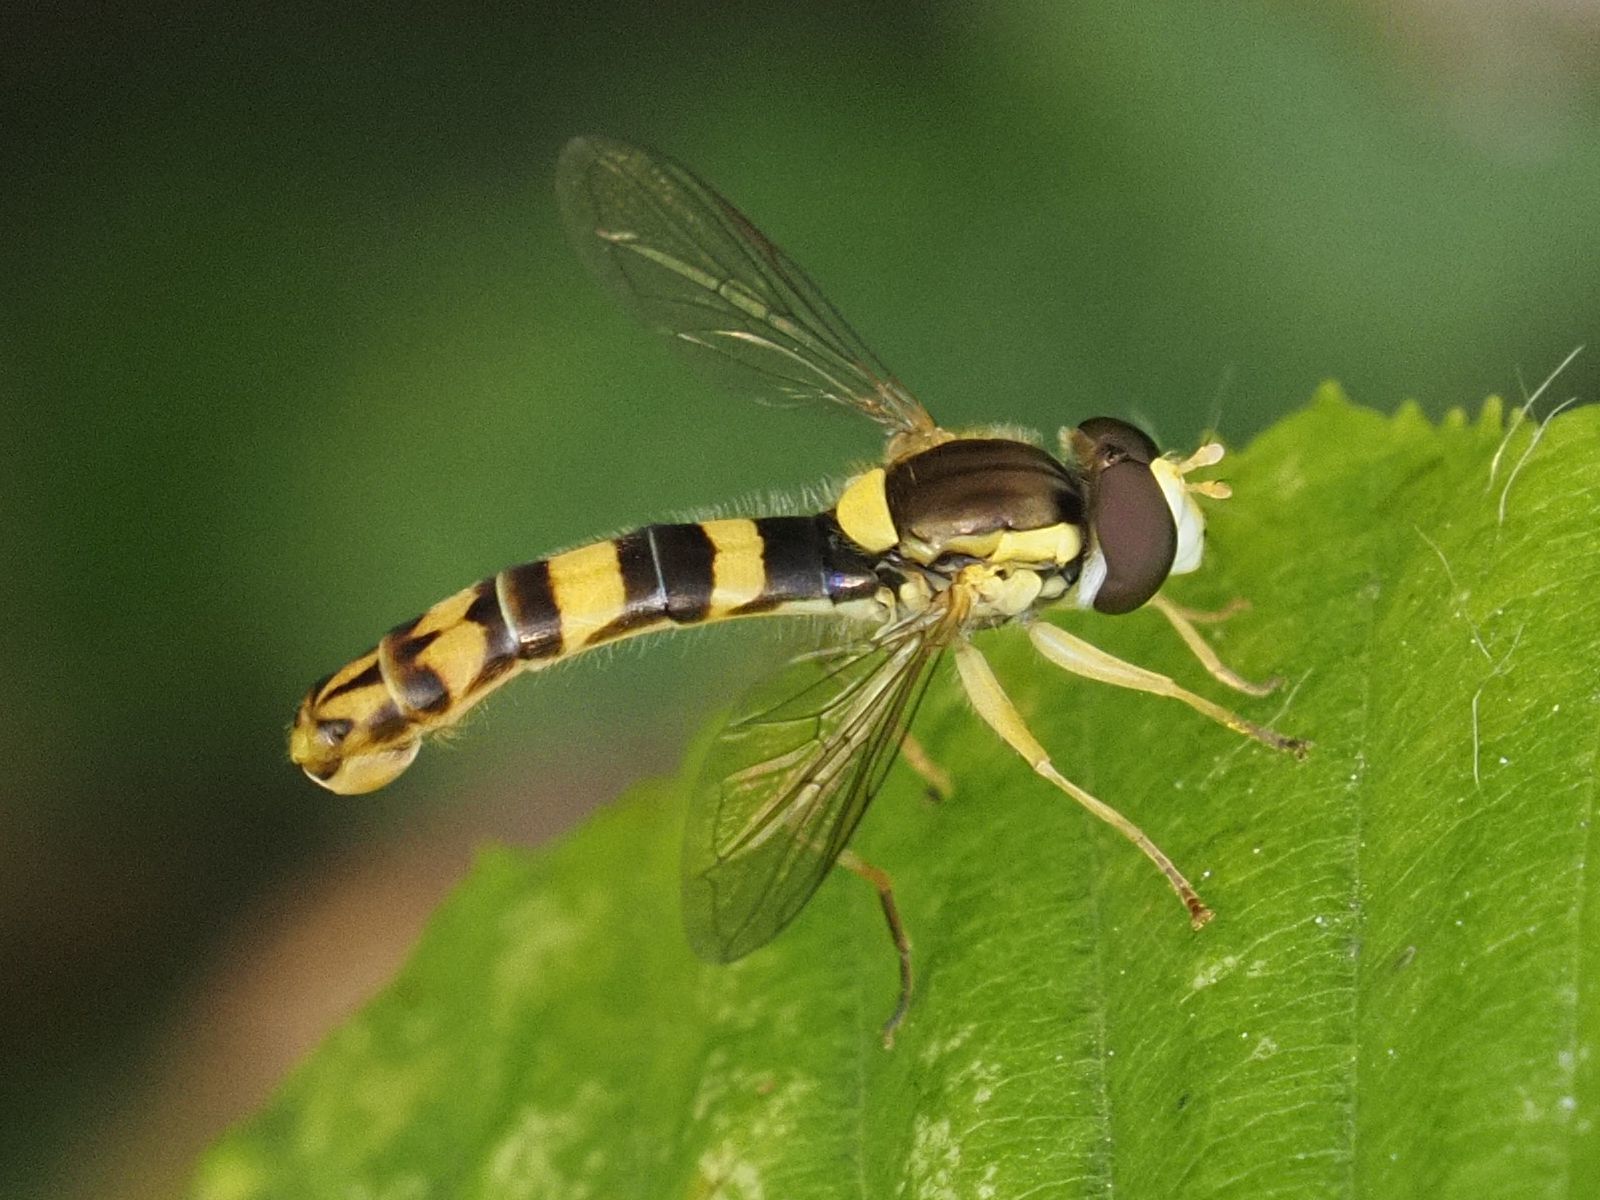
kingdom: Animalia
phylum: Arthropoda
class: Insecta
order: Diptera
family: Syrphidae
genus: Sphaerophoria
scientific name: Sphaerophoria scripta
